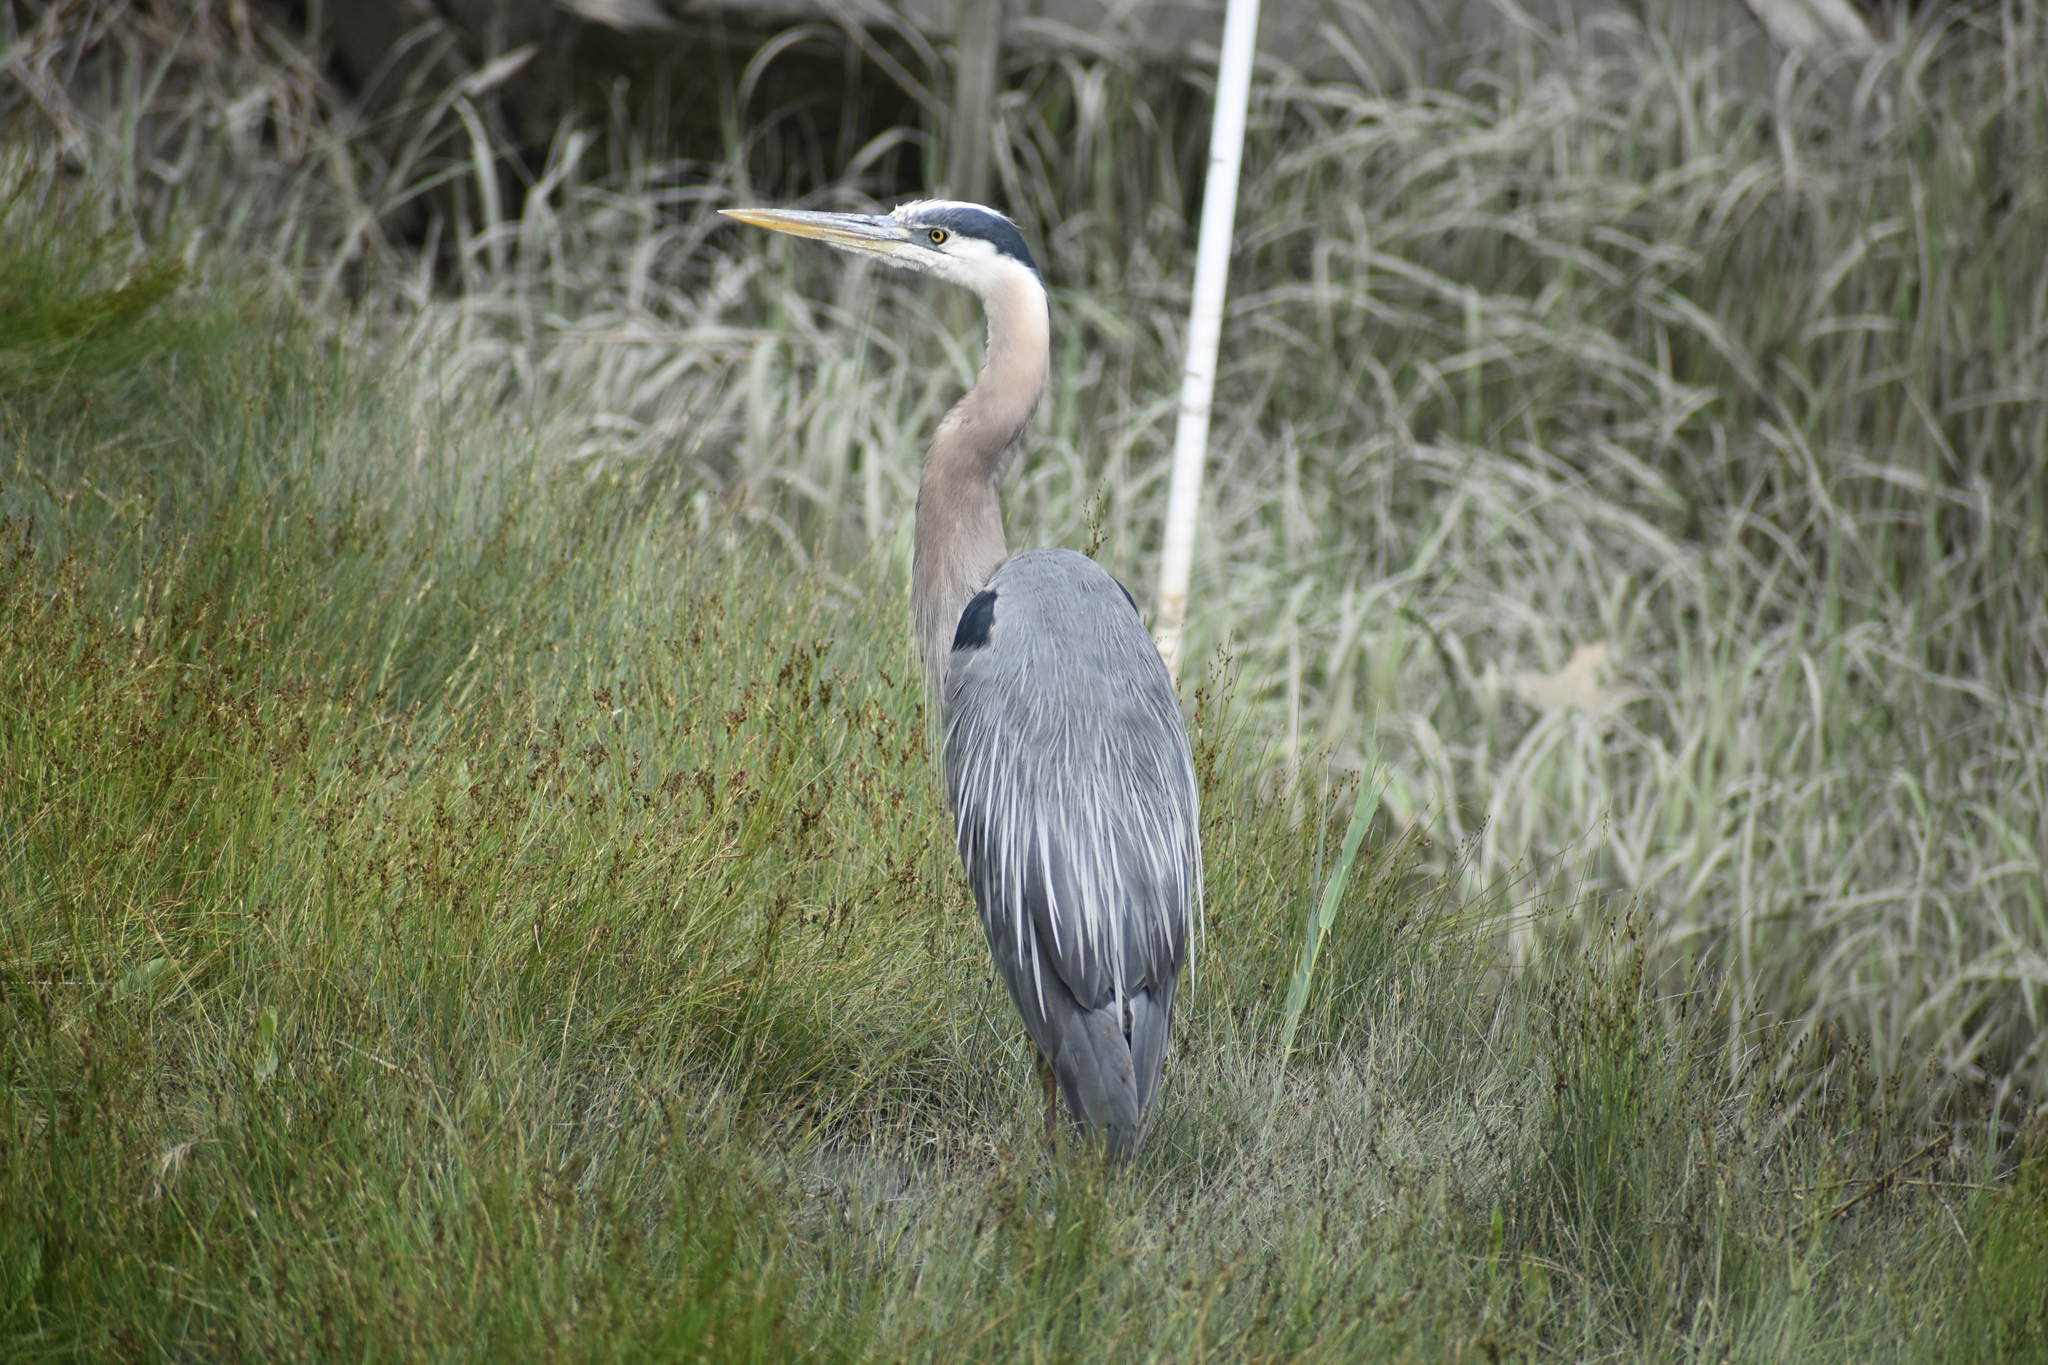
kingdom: Animalia
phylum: Chordata
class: Aves
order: Pelecaniformes
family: Ardeidae
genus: Ardea
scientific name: Ardea herodias
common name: Great blue heron
